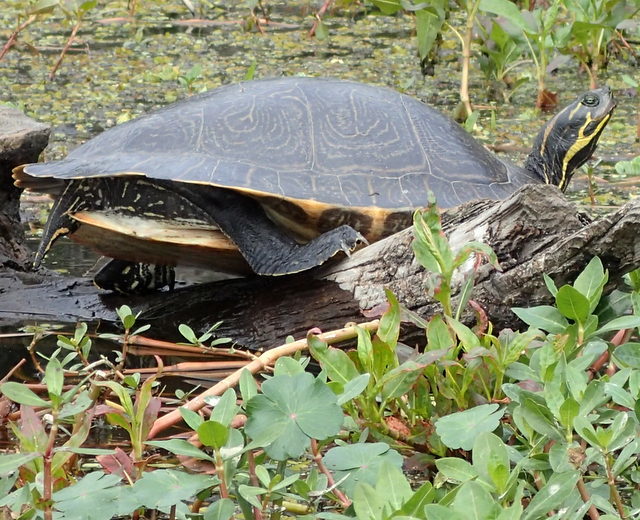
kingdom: Animalia
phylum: Chordata
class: Testudines
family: Emydidae
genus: Pseudemys
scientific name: Pseudemys concinna
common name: Eastern river cooter
